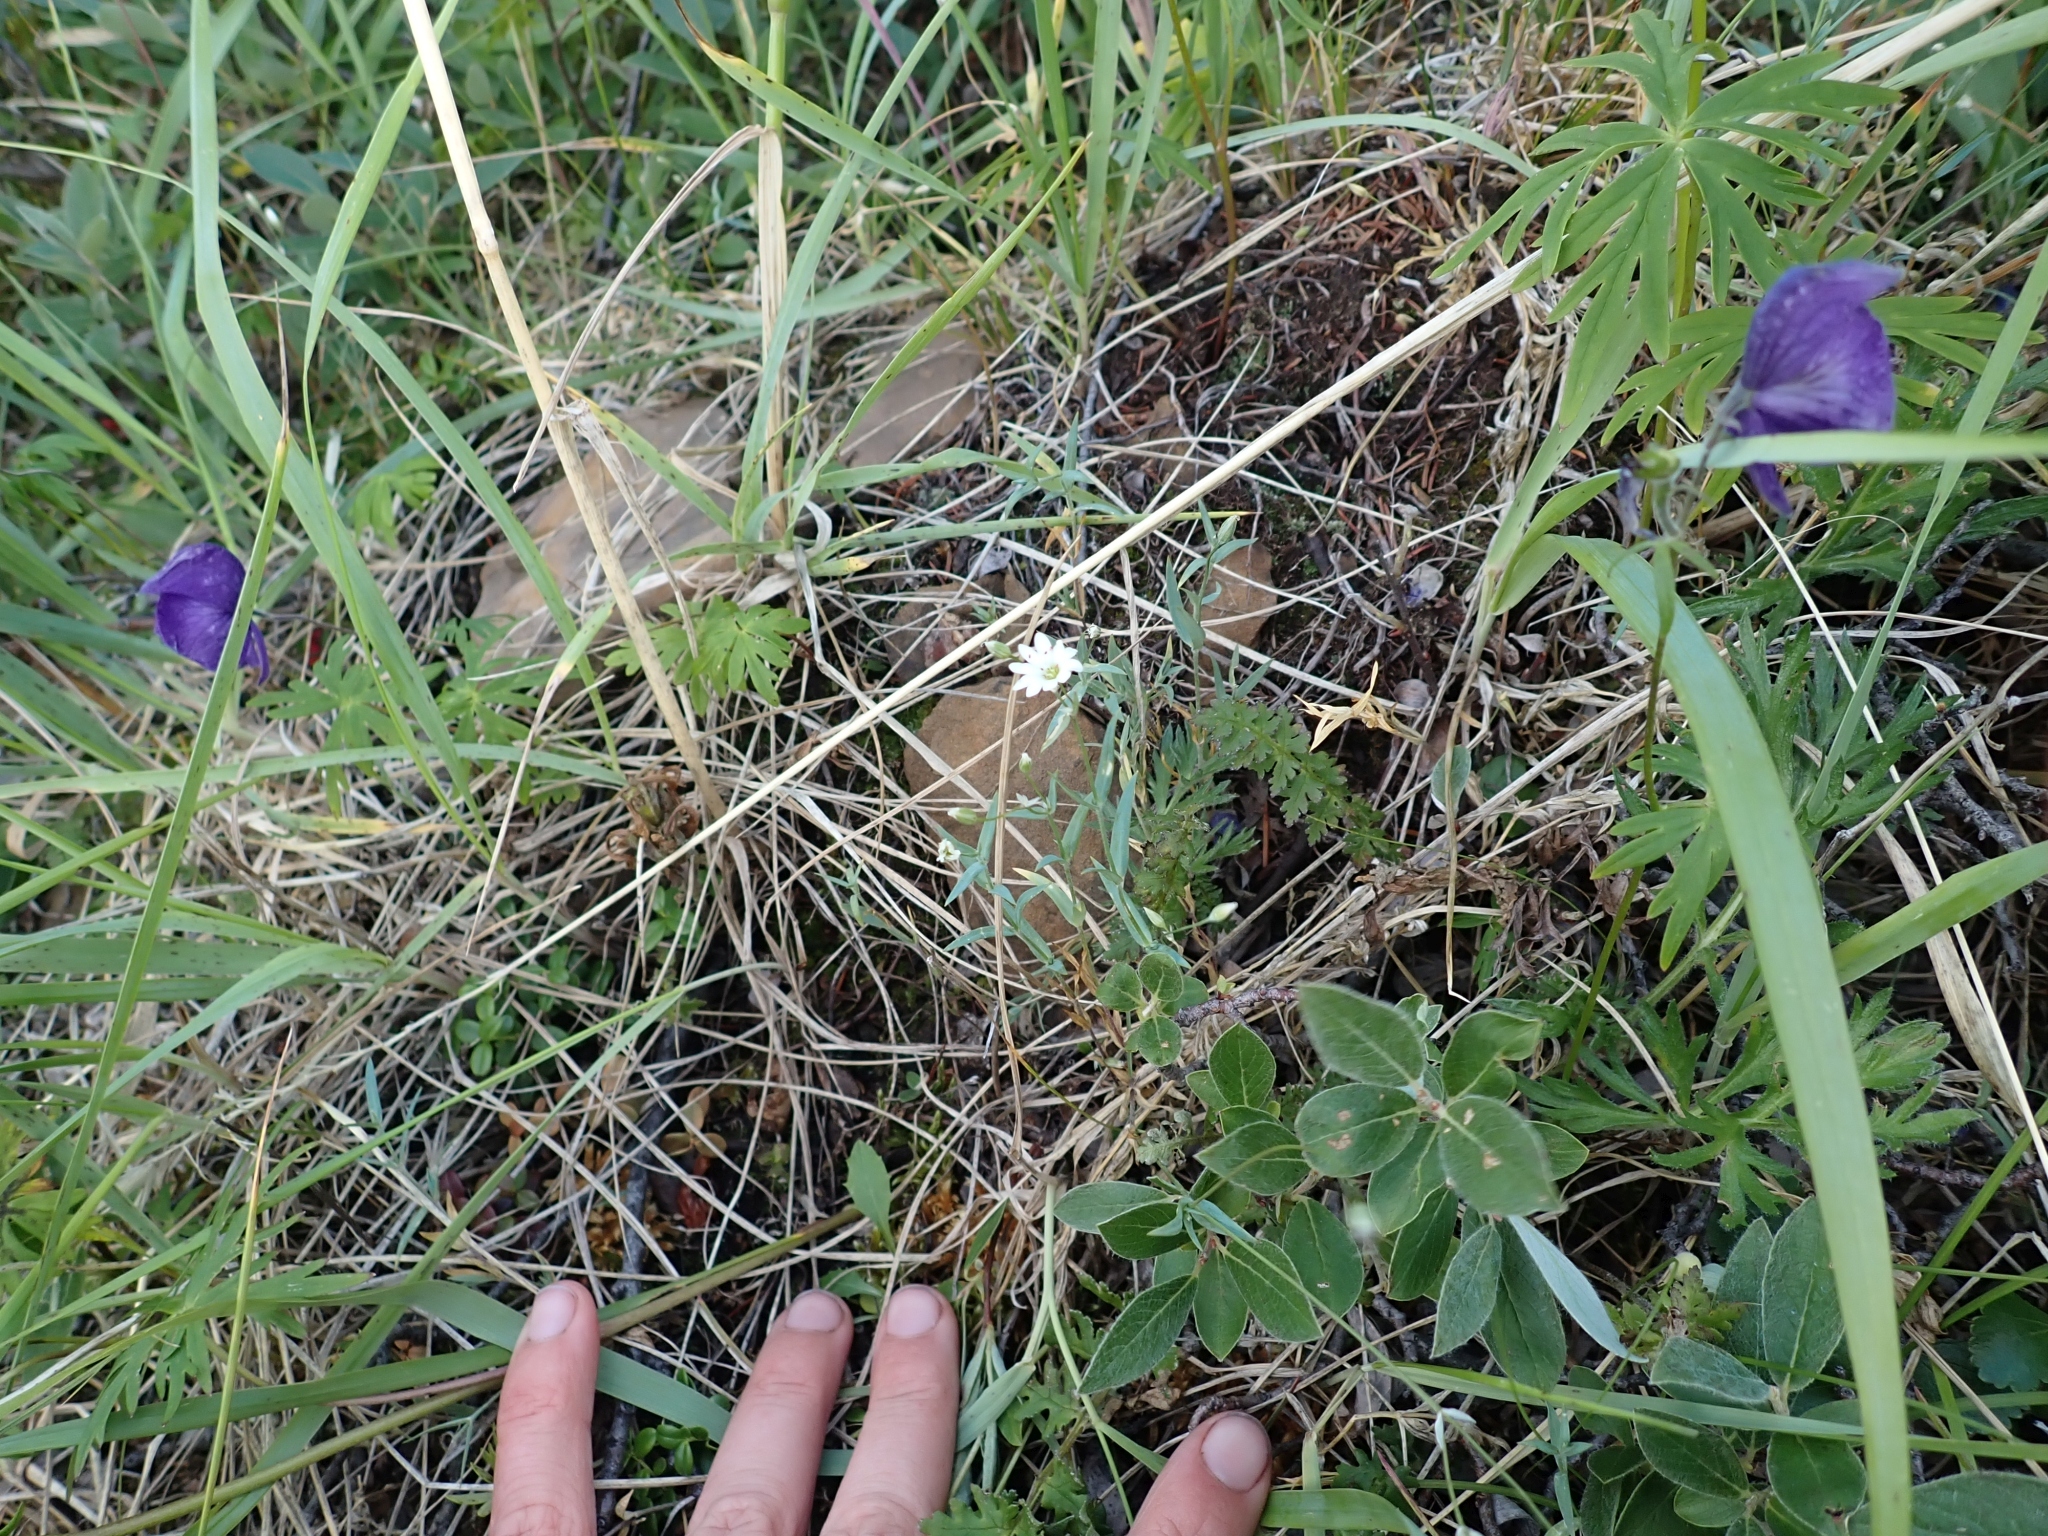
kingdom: Plantae
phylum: Tracheophyta
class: Magnoliopsida
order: Caryophyllales
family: Caryophyllaceae
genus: Stellaria
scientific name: Stellaria longipes
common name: Goldie's starwort
